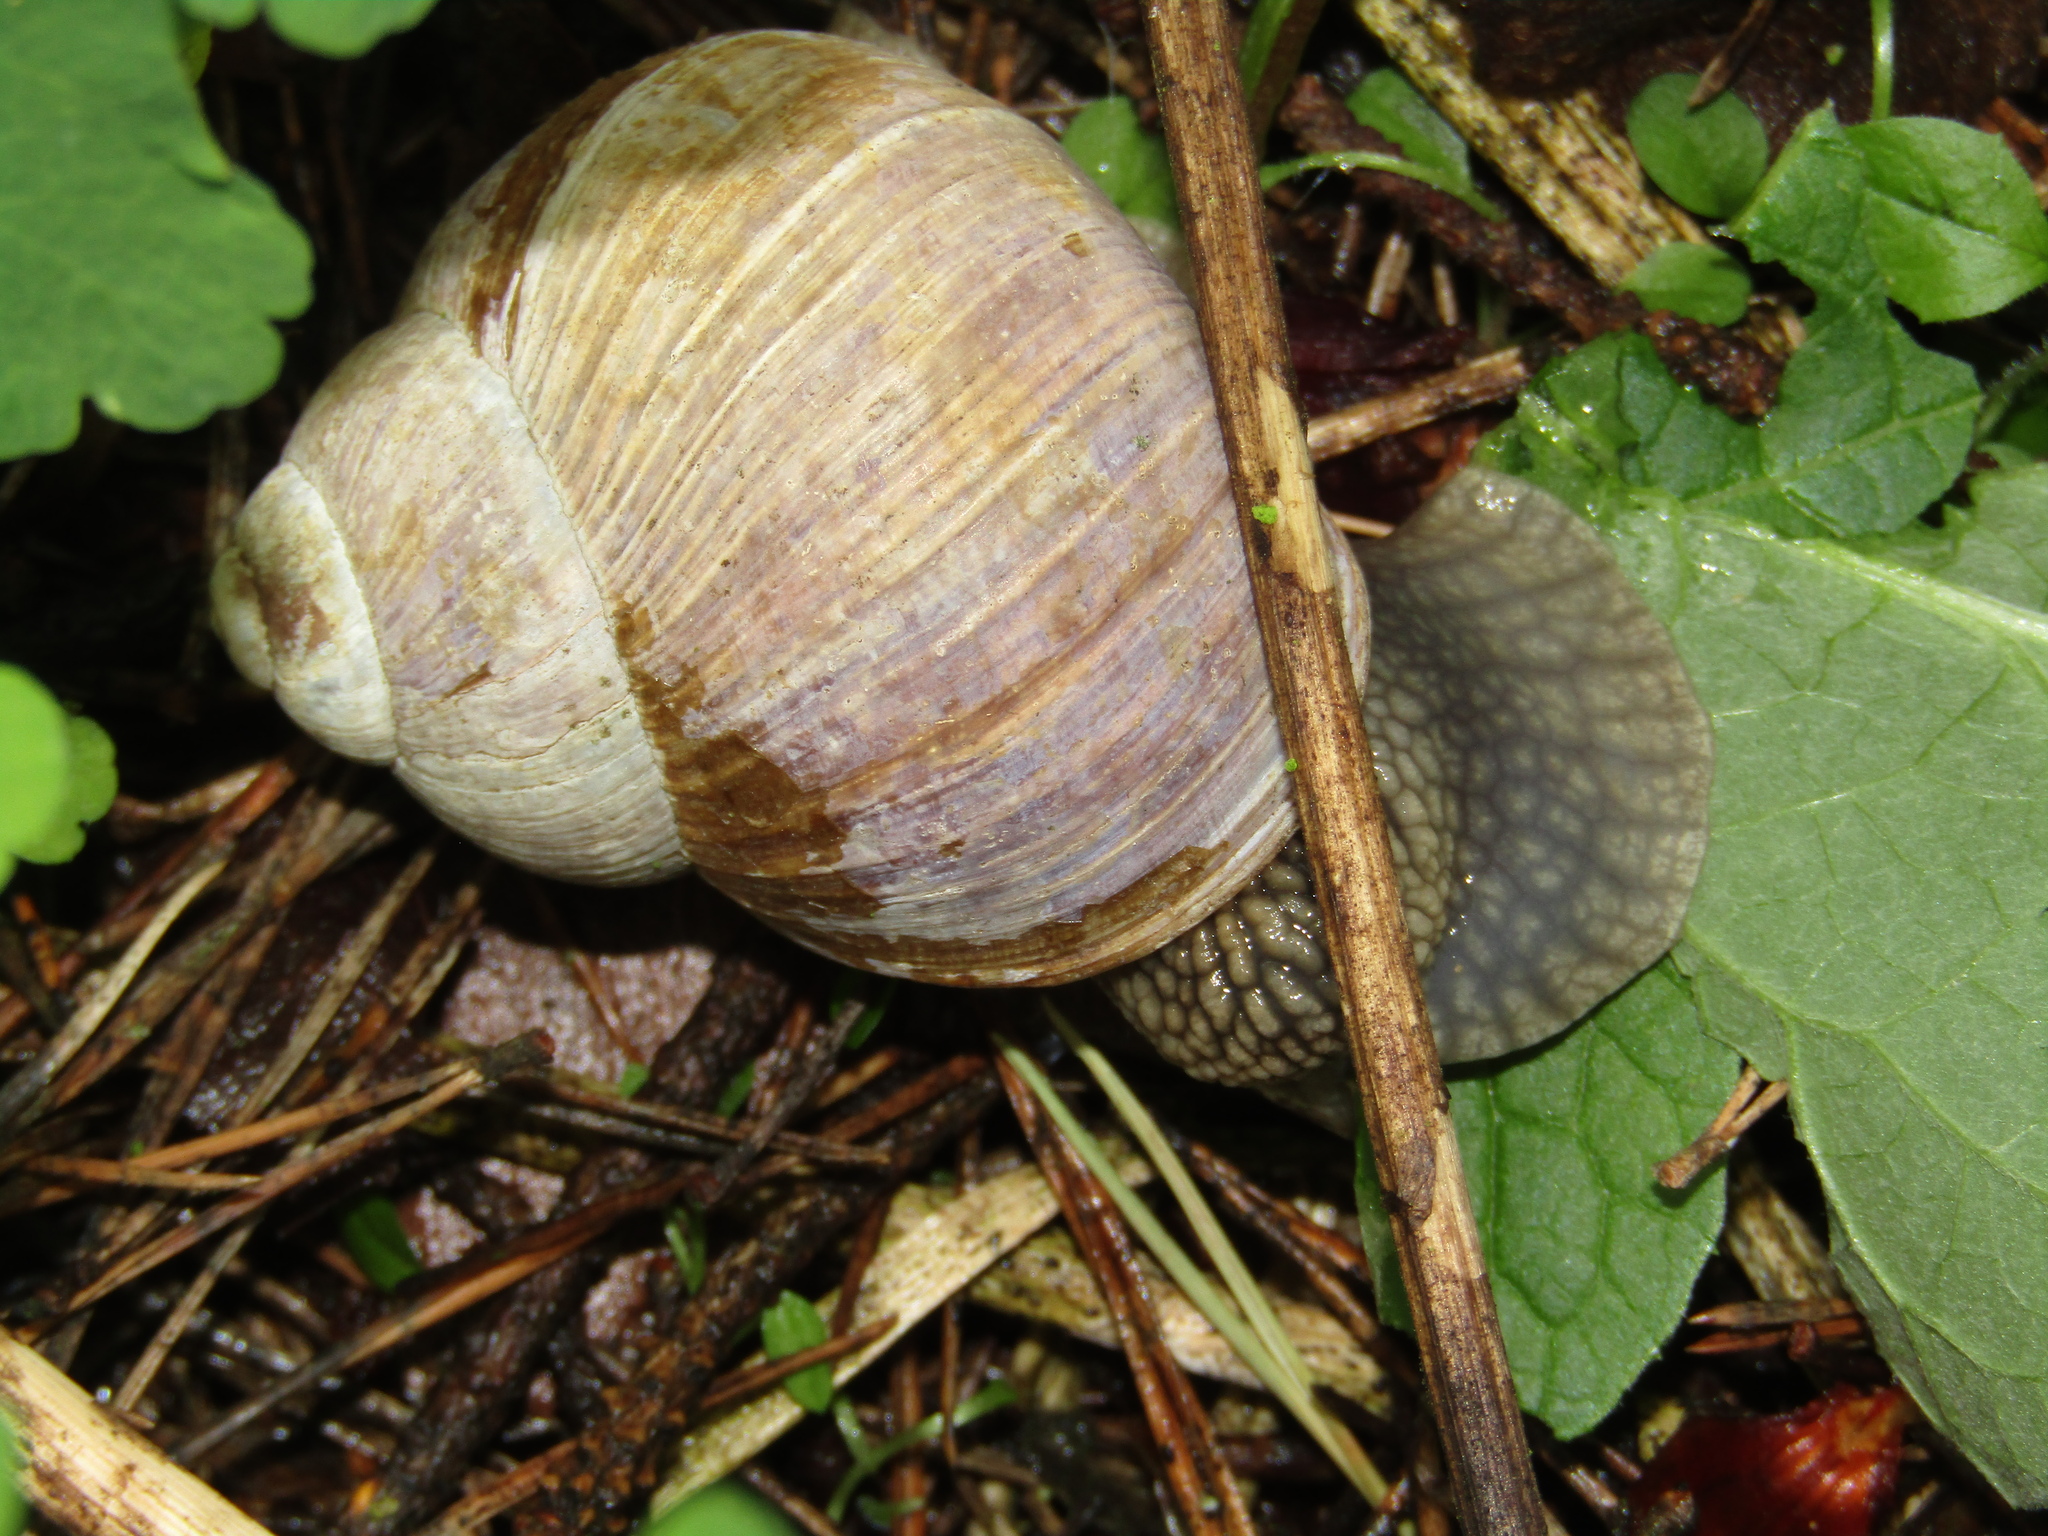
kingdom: Animalia
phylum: Mollusca
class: Gastropoda
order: Stylommatophora
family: Helicidae
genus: Helix
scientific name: Helix pomatia
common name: Roman snail
